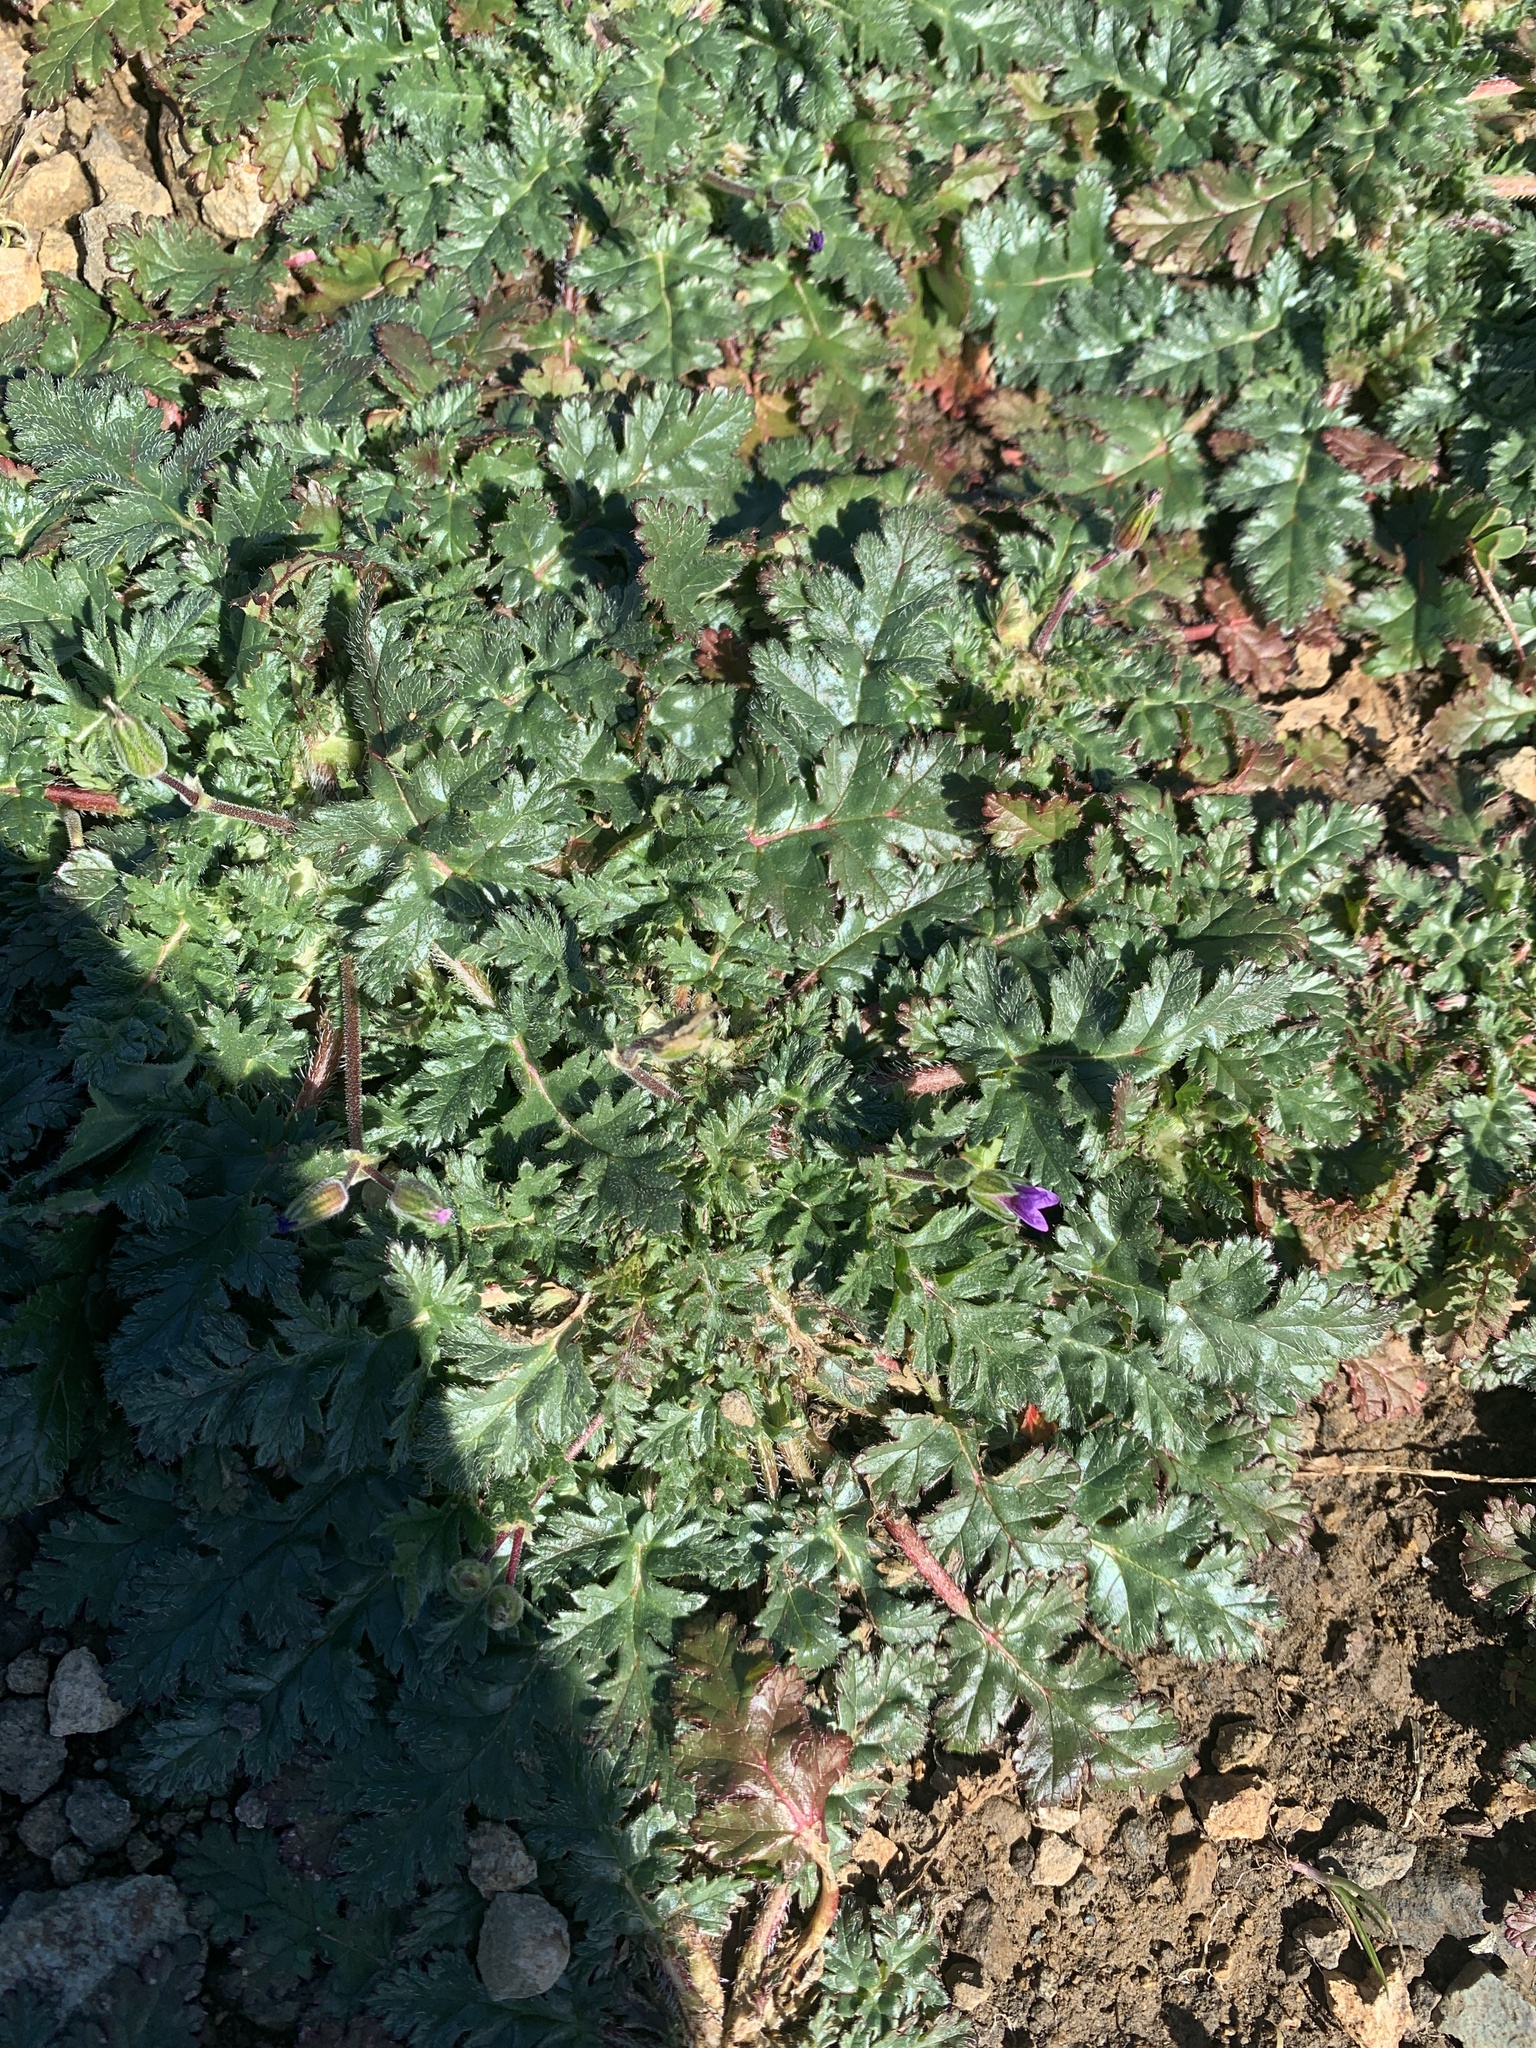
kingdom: Plantae
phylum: Tracheophyta
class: Magnoliopsida
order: Geraniales
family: Geraniaceae
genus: Erodium
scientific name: Erodium
